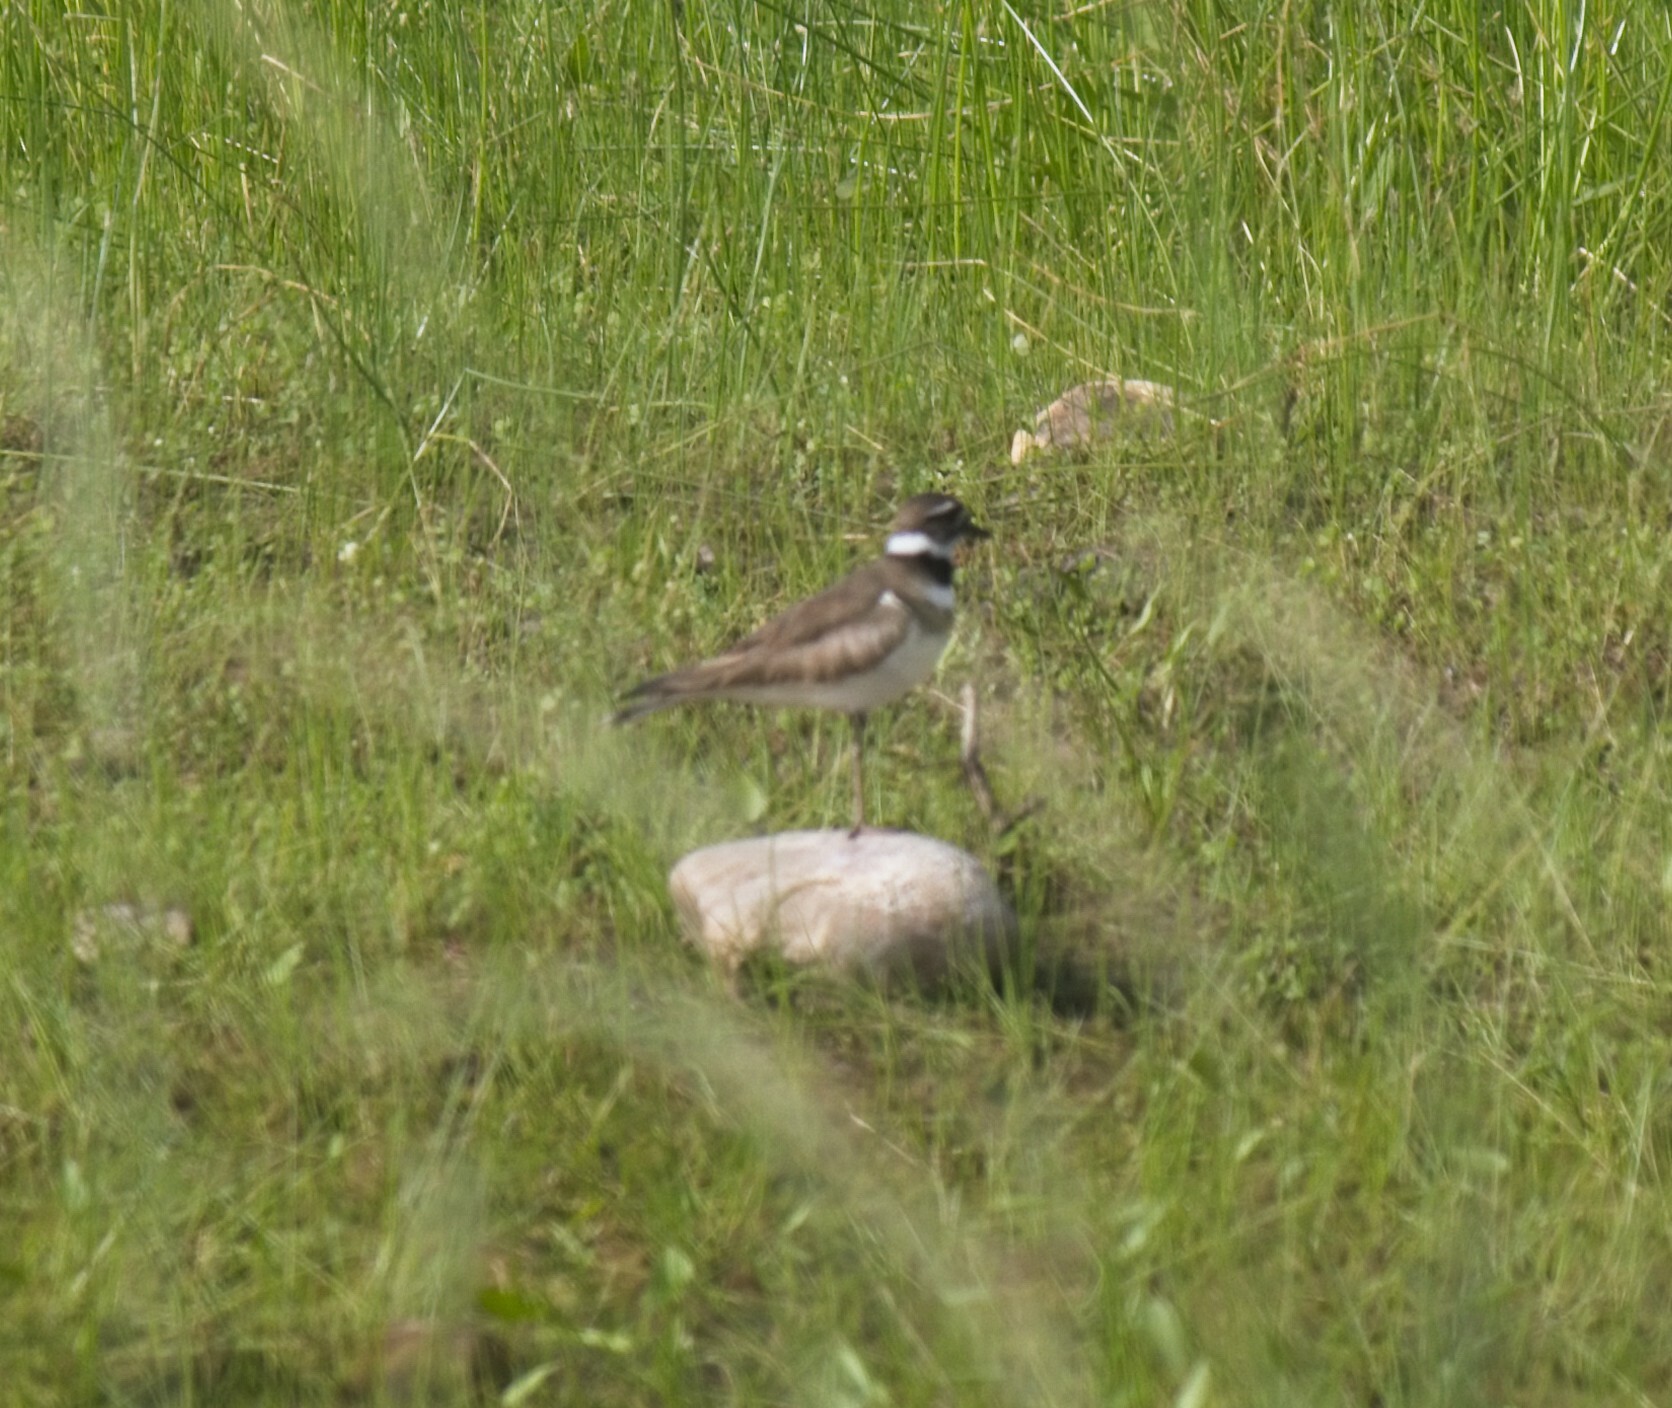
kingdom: Animalia
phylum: Chordata
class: Aves
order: Charadriiformes
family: Charadriidae
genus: Charadrius
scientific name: Charadrius vociferus
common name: Killdeer
